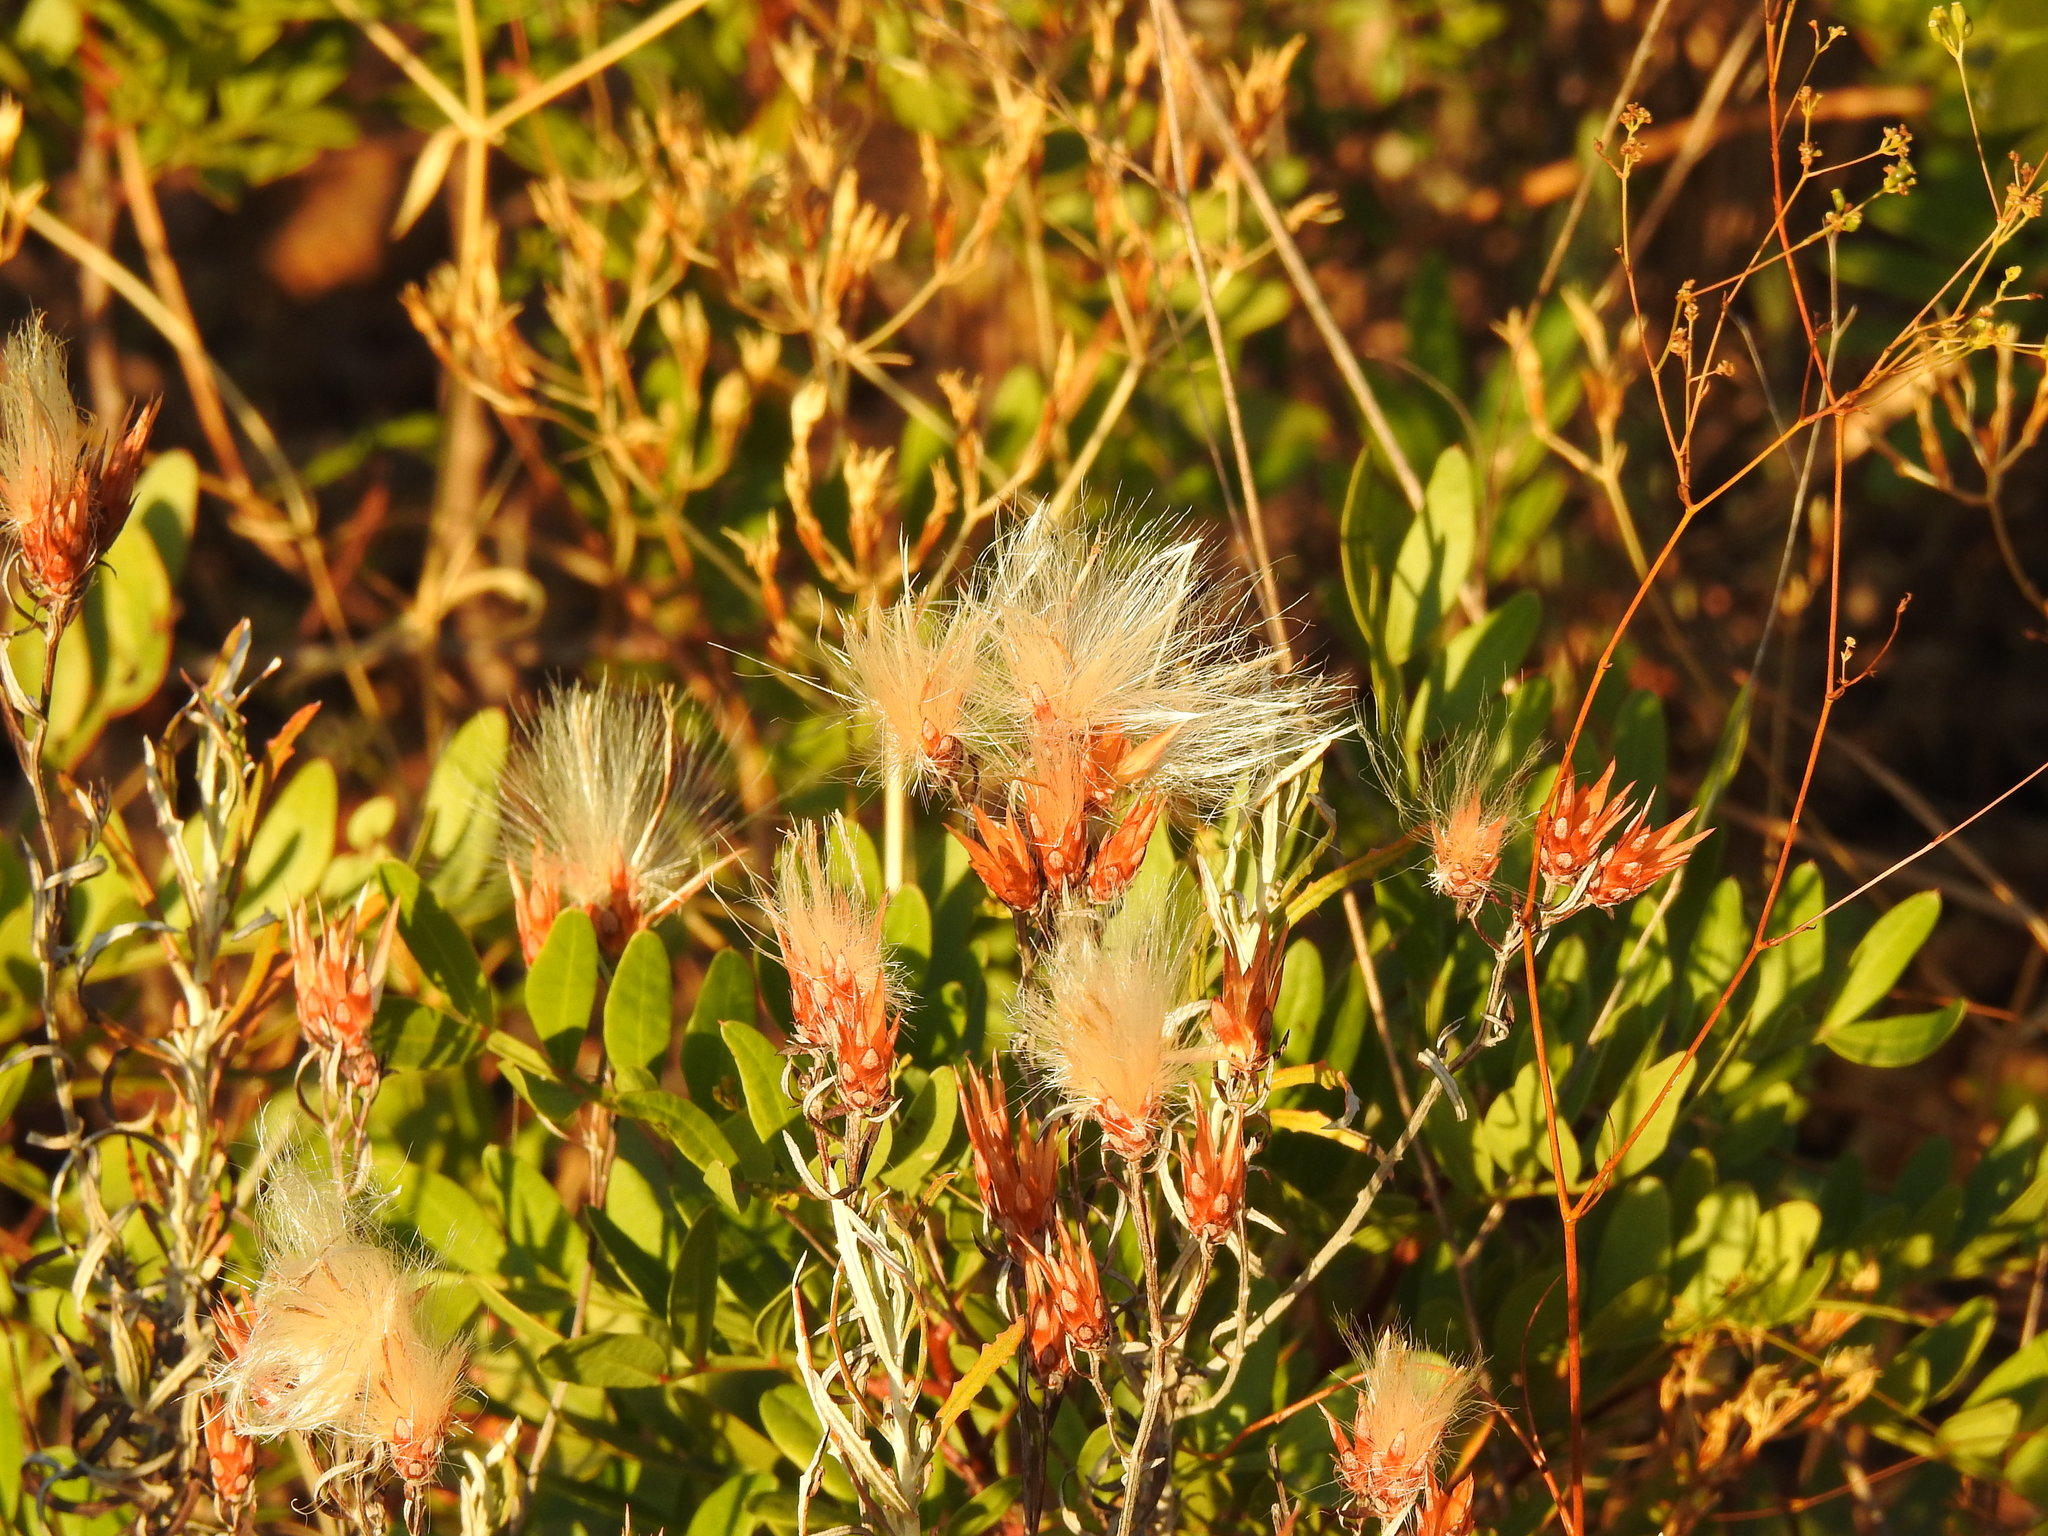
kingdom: Plantae
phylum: Tracheophyta
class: Magnoliopsida
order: Asterales
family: Asteraceae
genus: Staehelina
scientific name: Staehelina dubia
